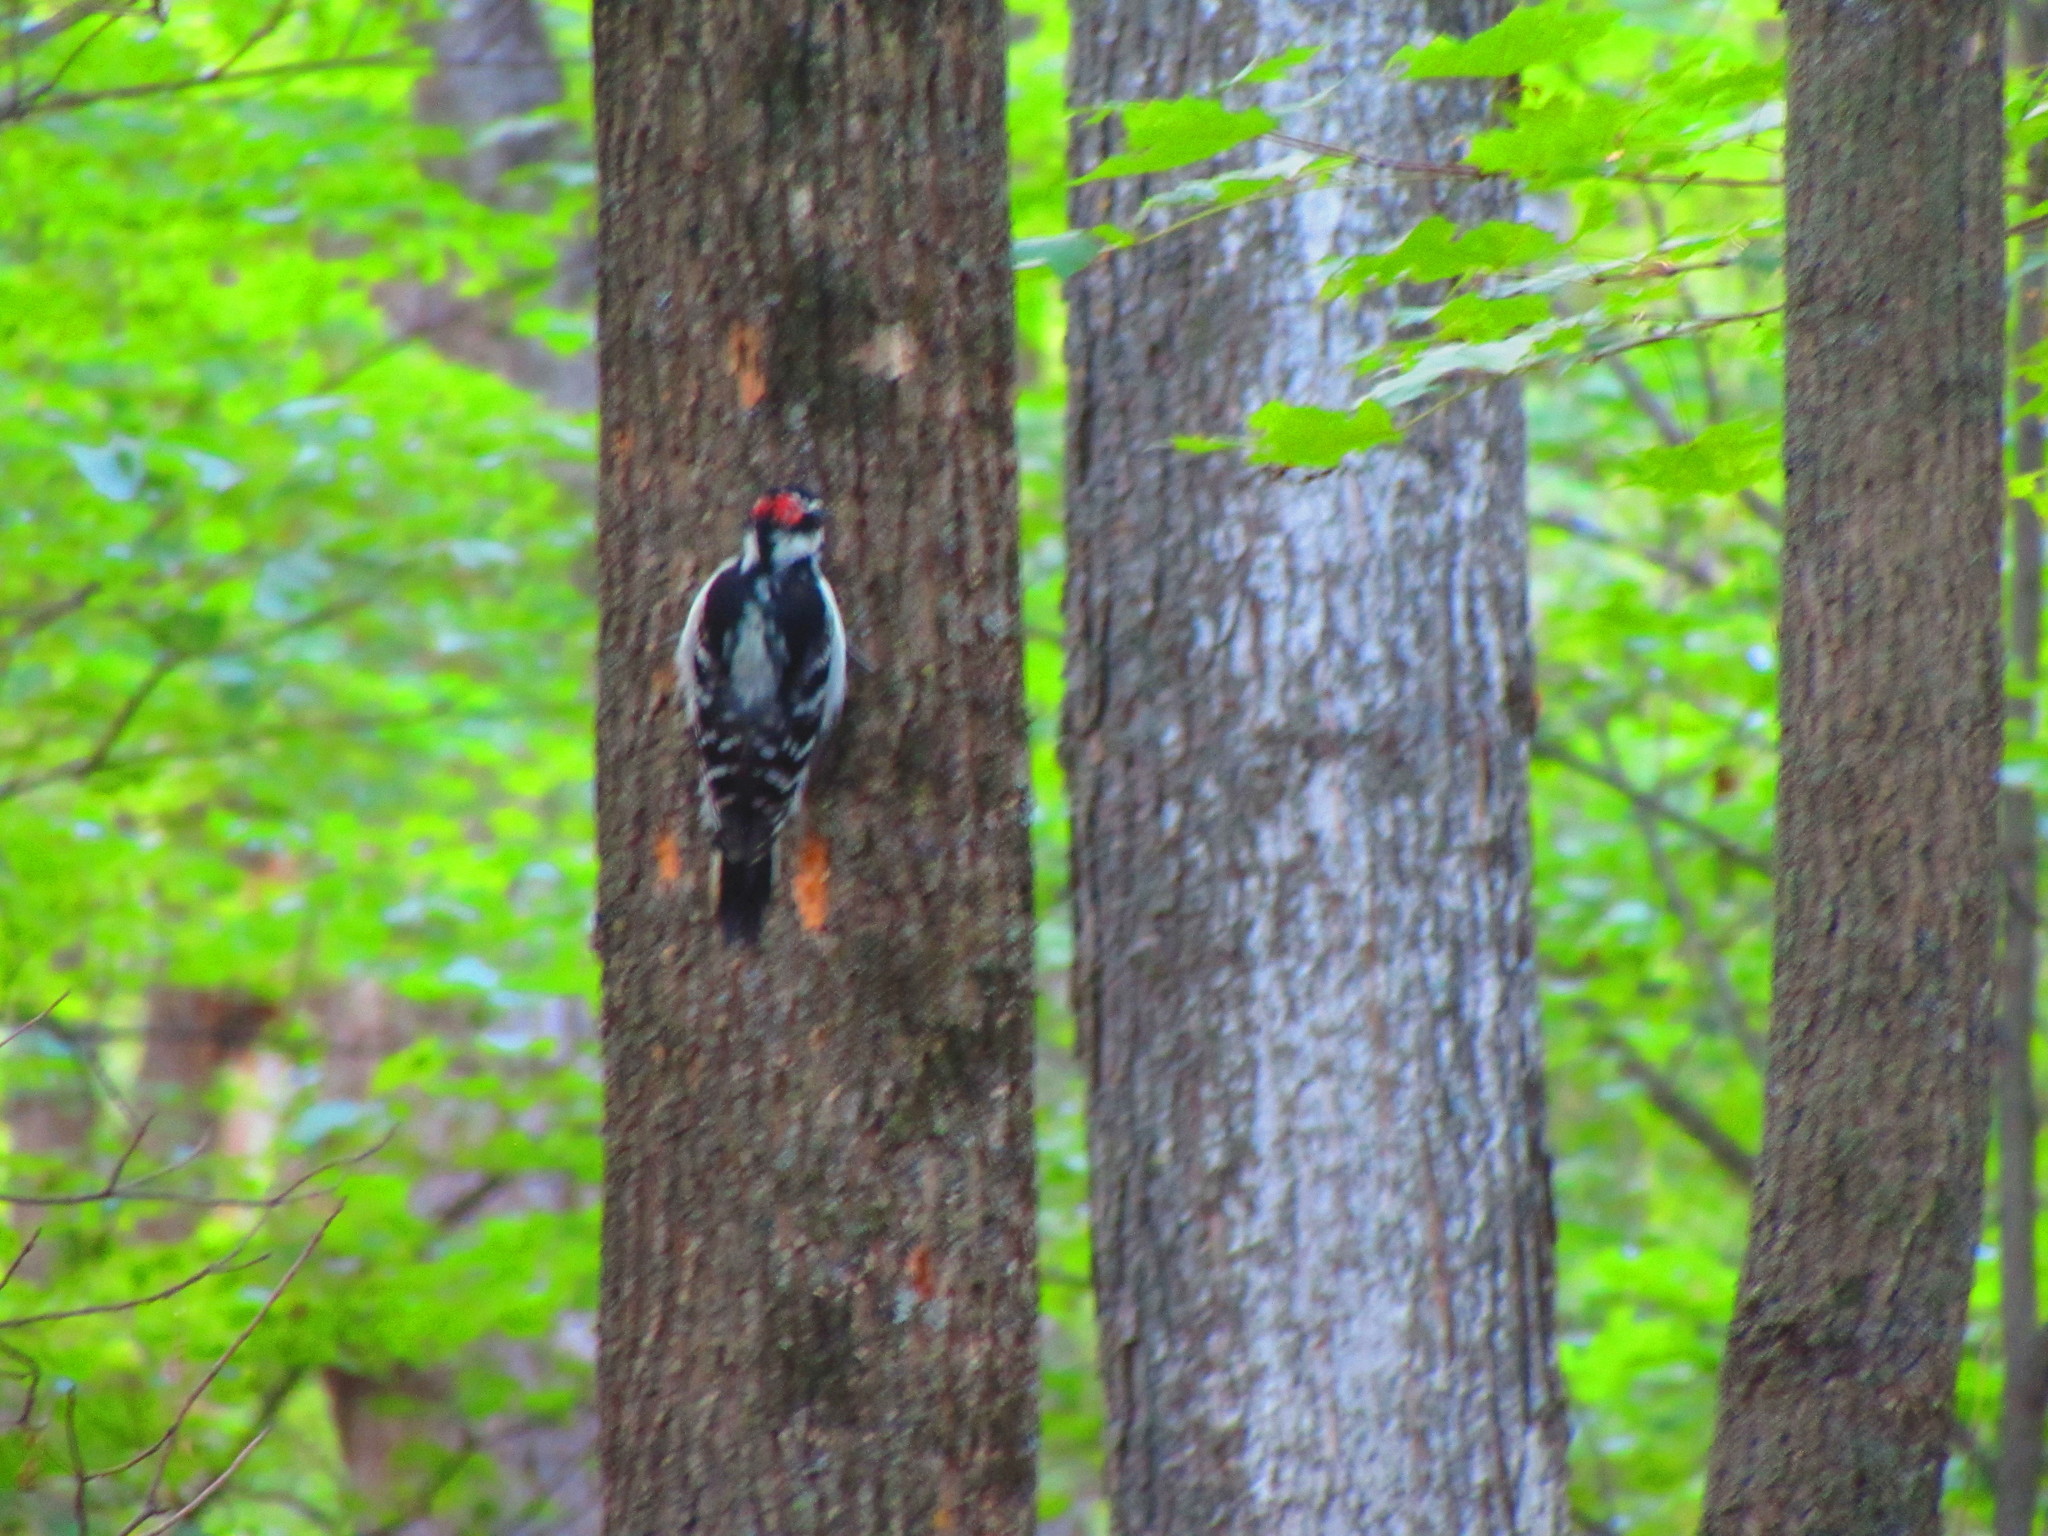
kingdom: Animalia
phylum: Chordata
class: Aves
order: Piciformes
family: Picidae
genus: Dryobates
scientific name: Dryobates pubescens
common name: Downy woodpecker
